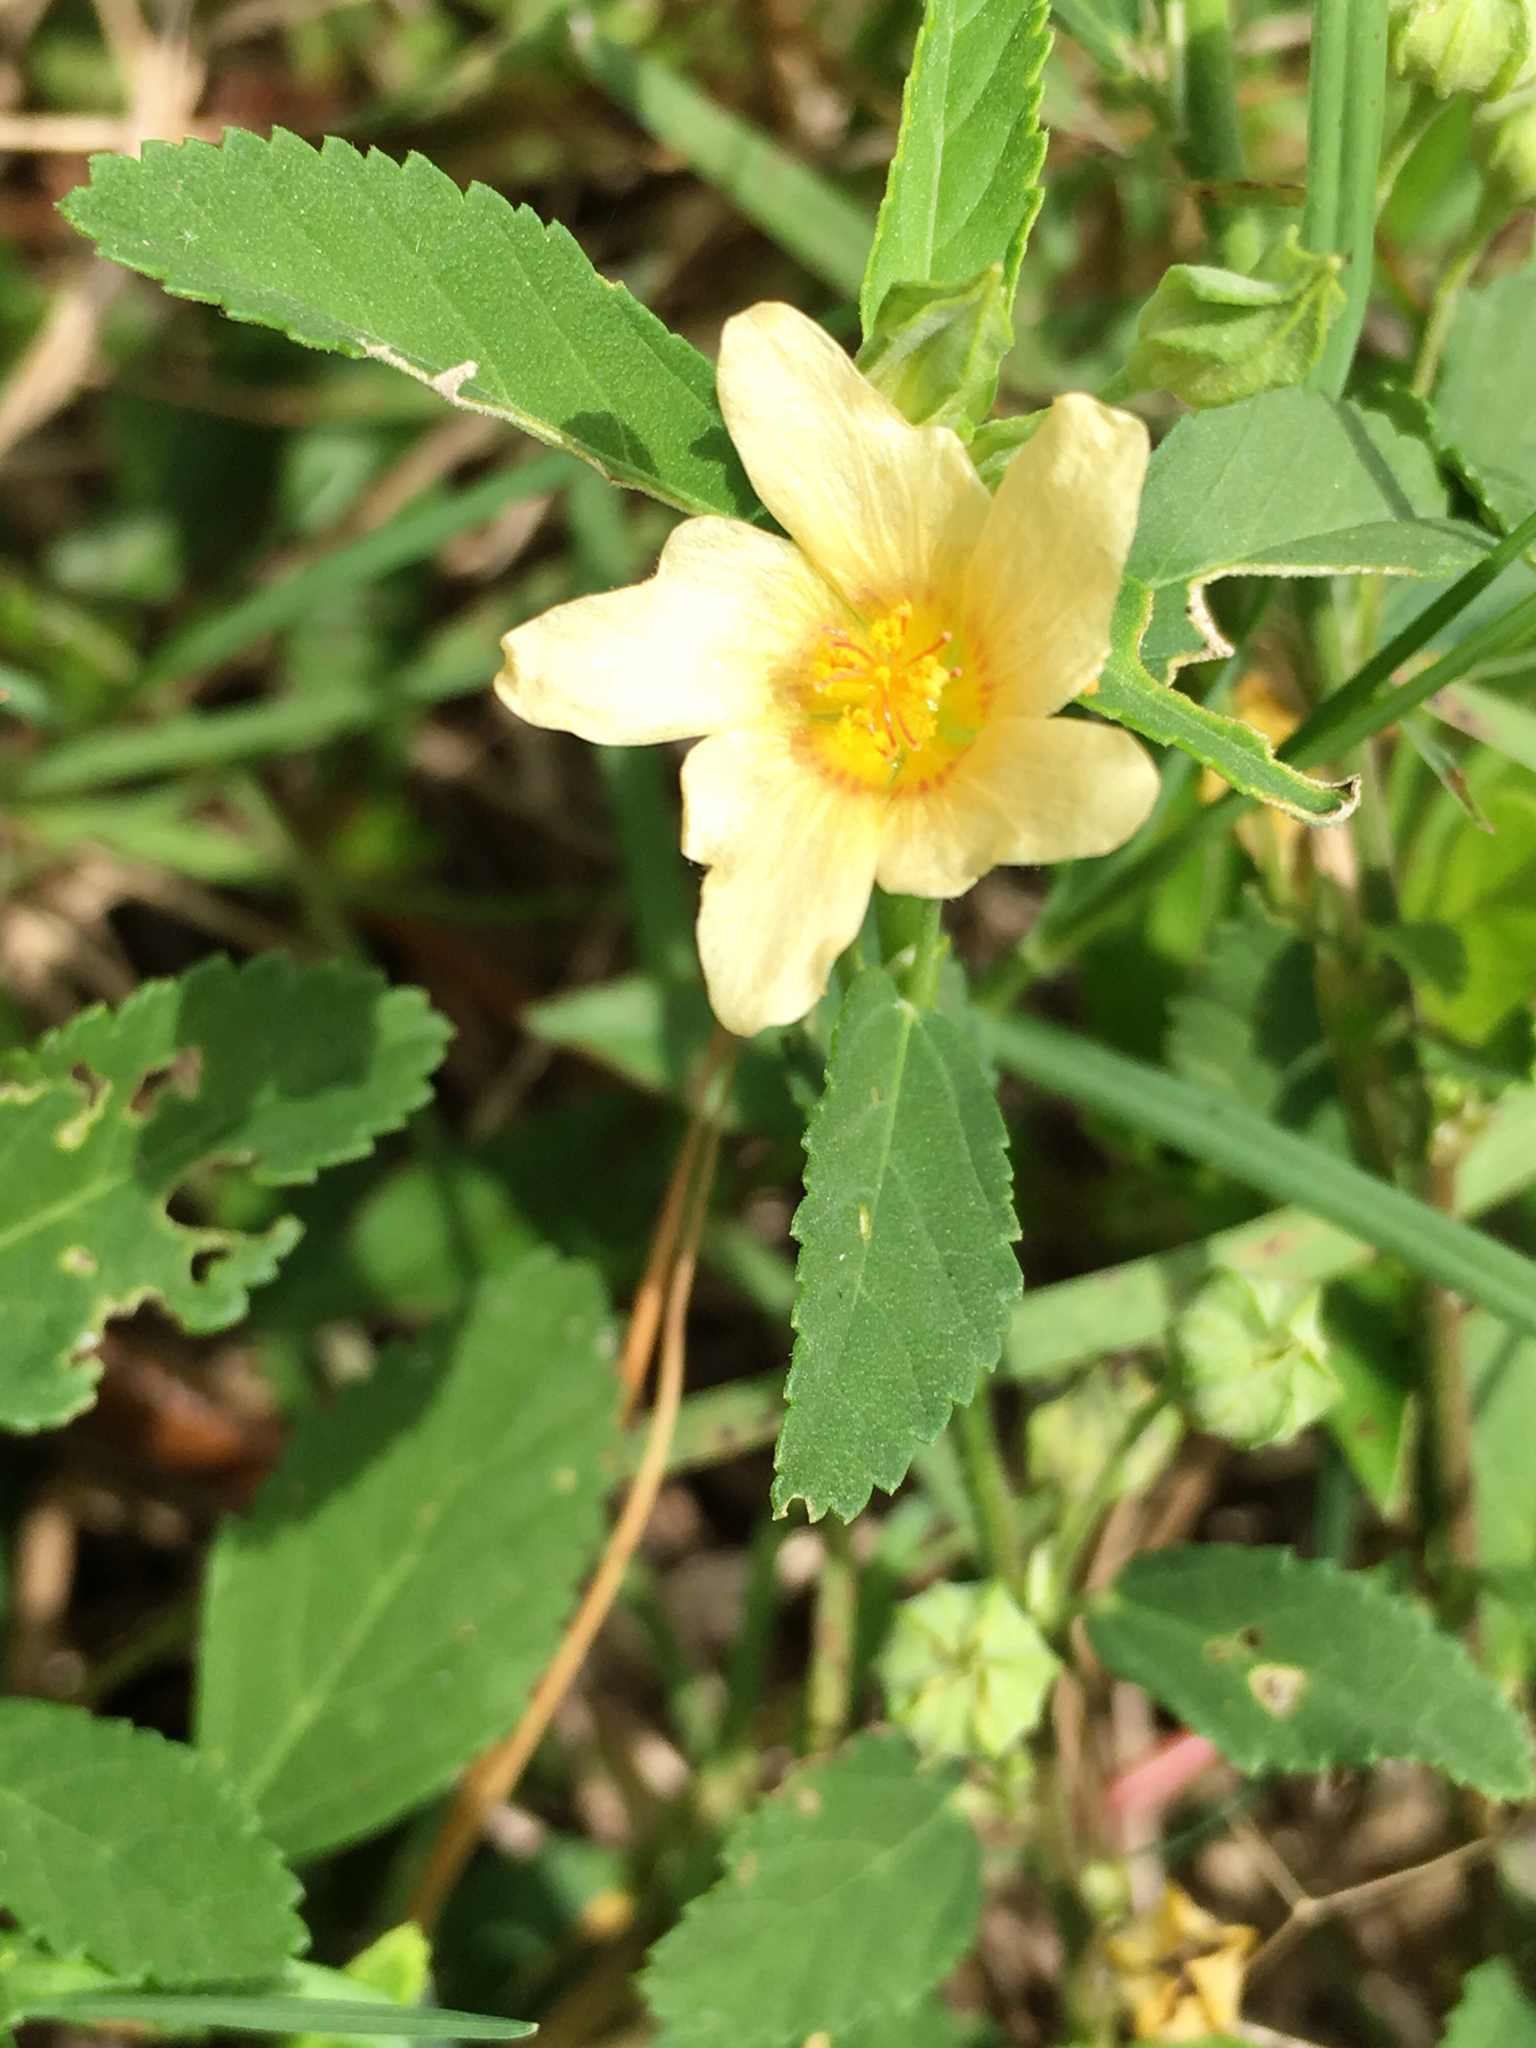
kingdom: Plantae
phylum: Tracheophyta
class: Magnoliopsida
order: Malvales
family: Malvaceae
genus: Sida
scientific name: Sida rhombifolia
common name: Queensland-hemp
